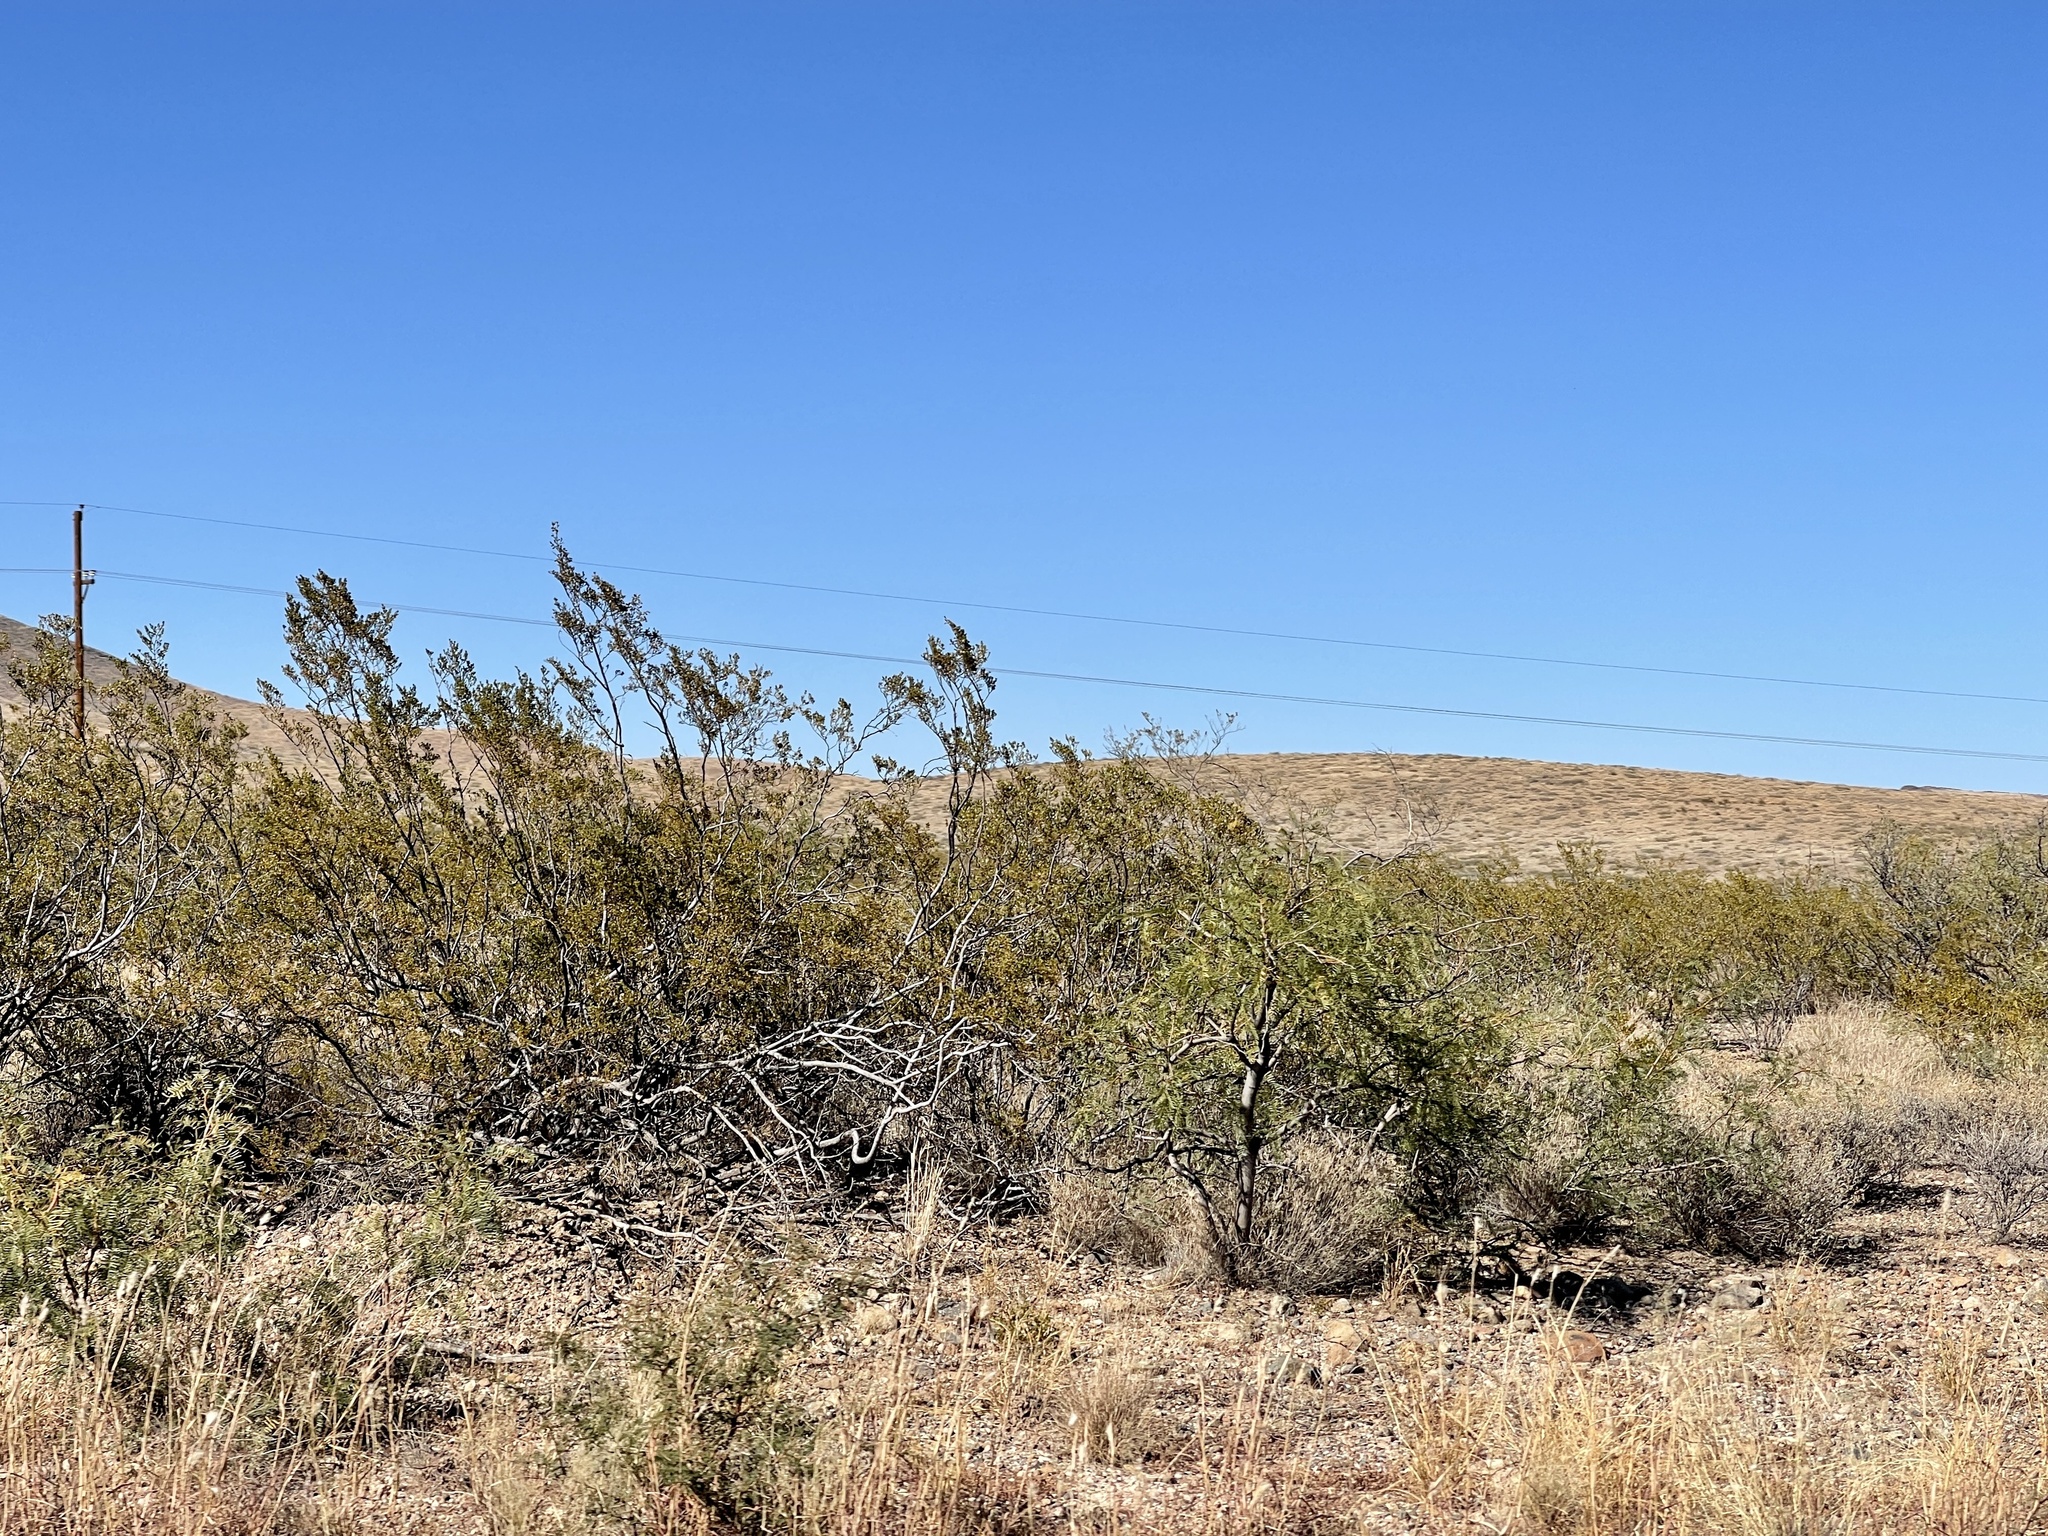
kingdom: Plantae
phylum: Tracheophyta
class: Magnoliopsida
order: Zygophyllales
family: Zygophyllaceae
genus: Larrea
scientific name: Larrea tridentata
